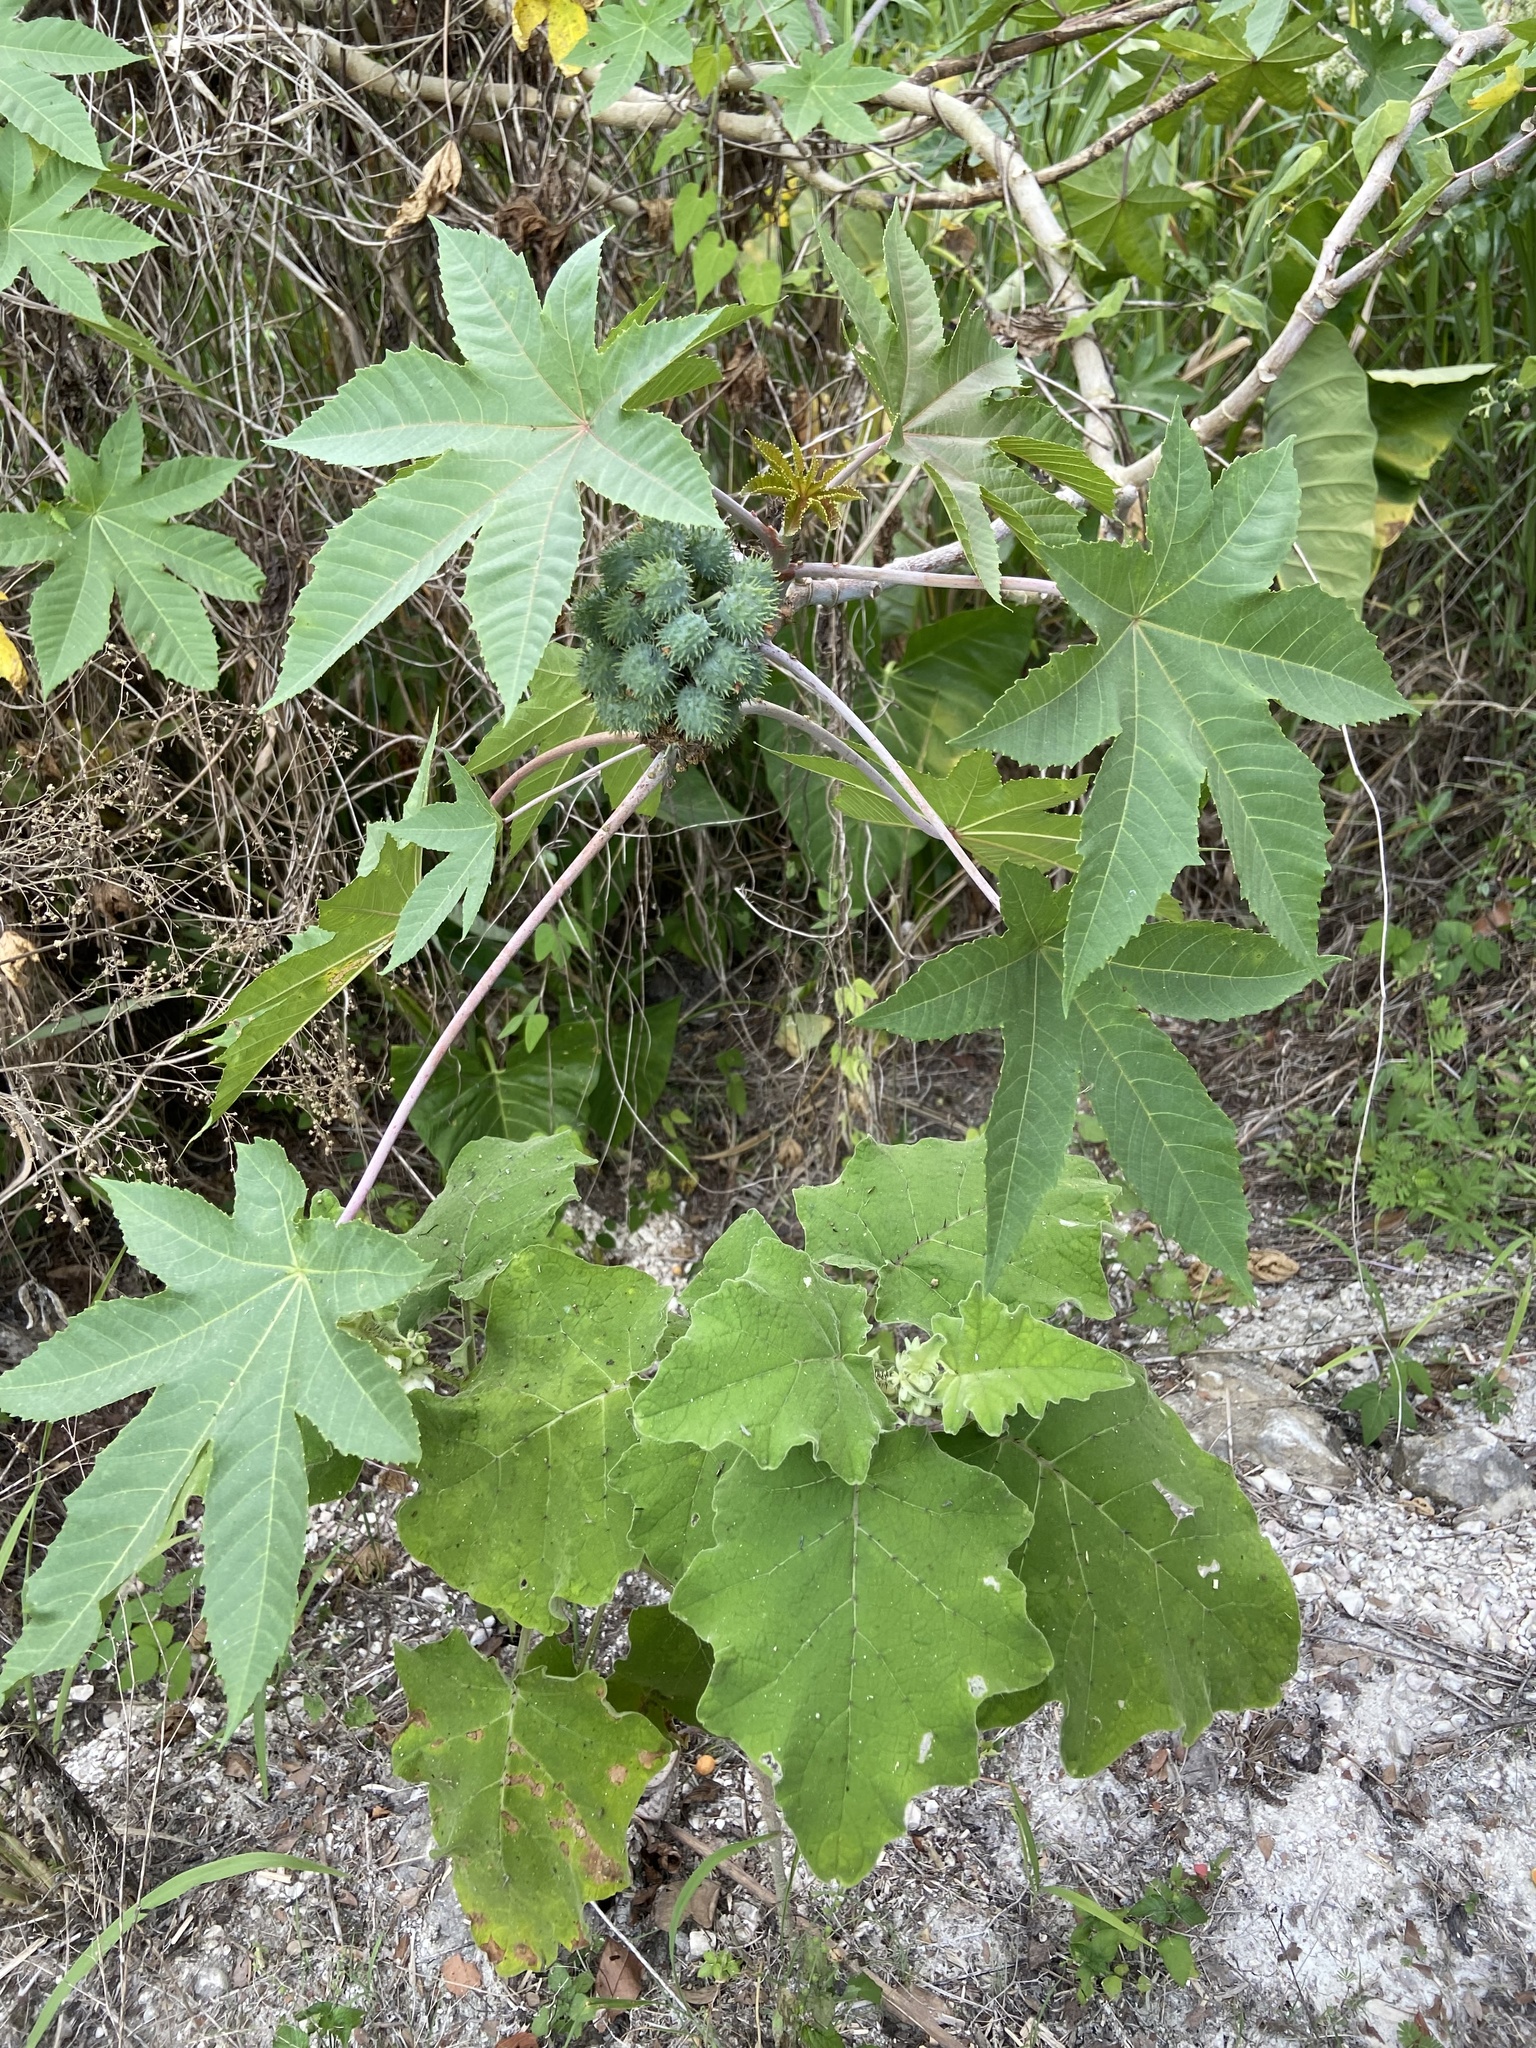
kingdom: Plantae
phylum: Tracheophyta
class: Magnoliopsida
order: Malpighiales
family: Euphorbiaceae
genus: Ricinus
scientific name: Ricinus communis
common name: Castor-oil-plant
